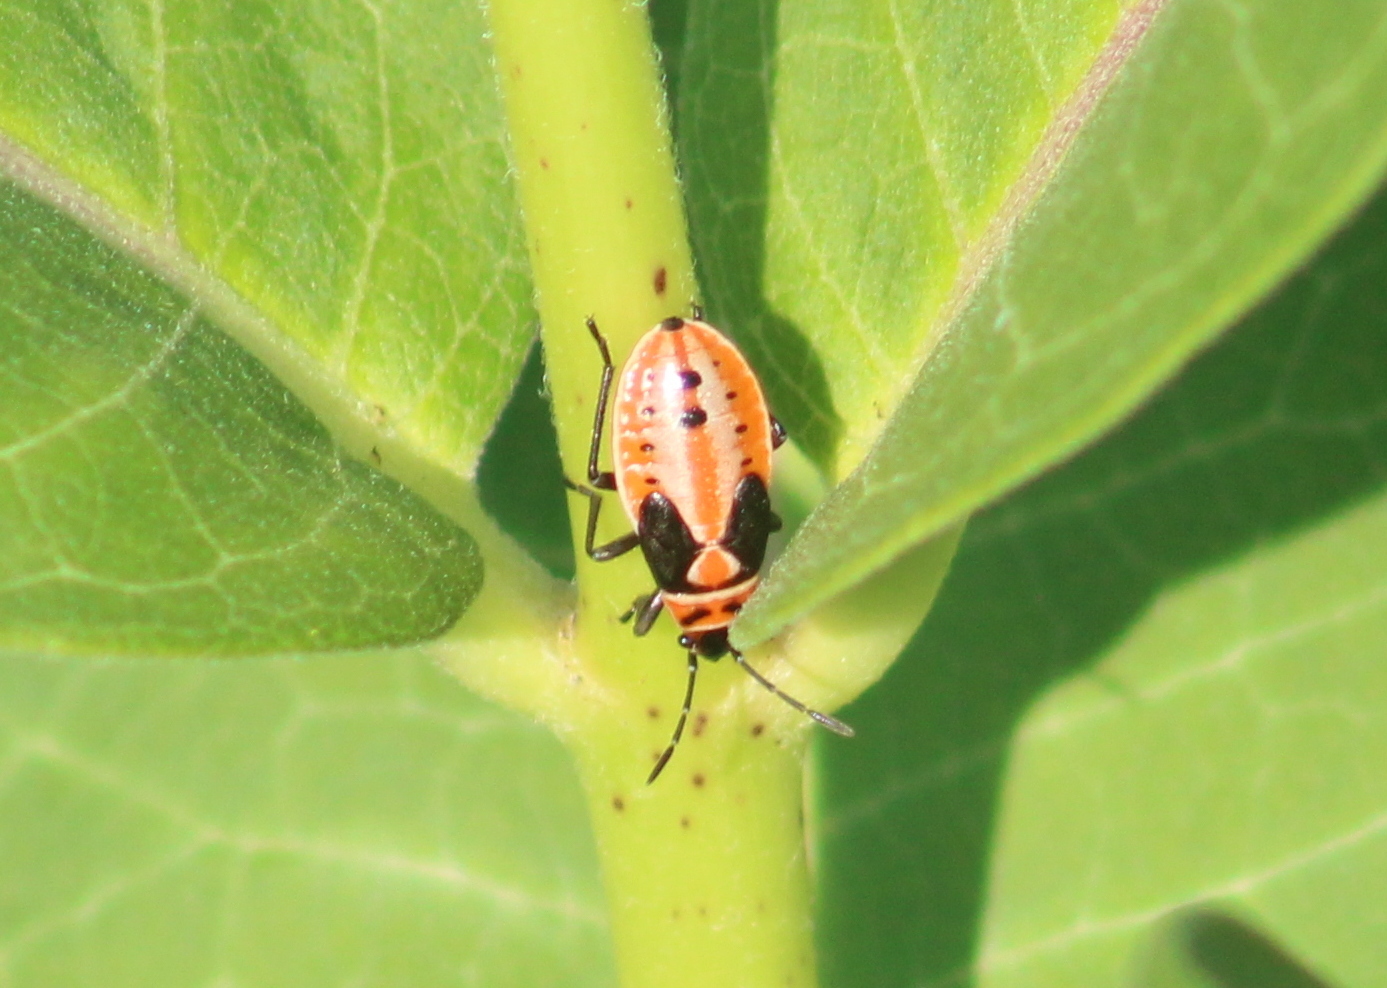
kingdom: Animalia
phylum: Arthropoda
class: Insecta
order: Hemiptera
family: Lygaeidae
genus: Lygaeus
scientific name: Lygaeus kalmii
